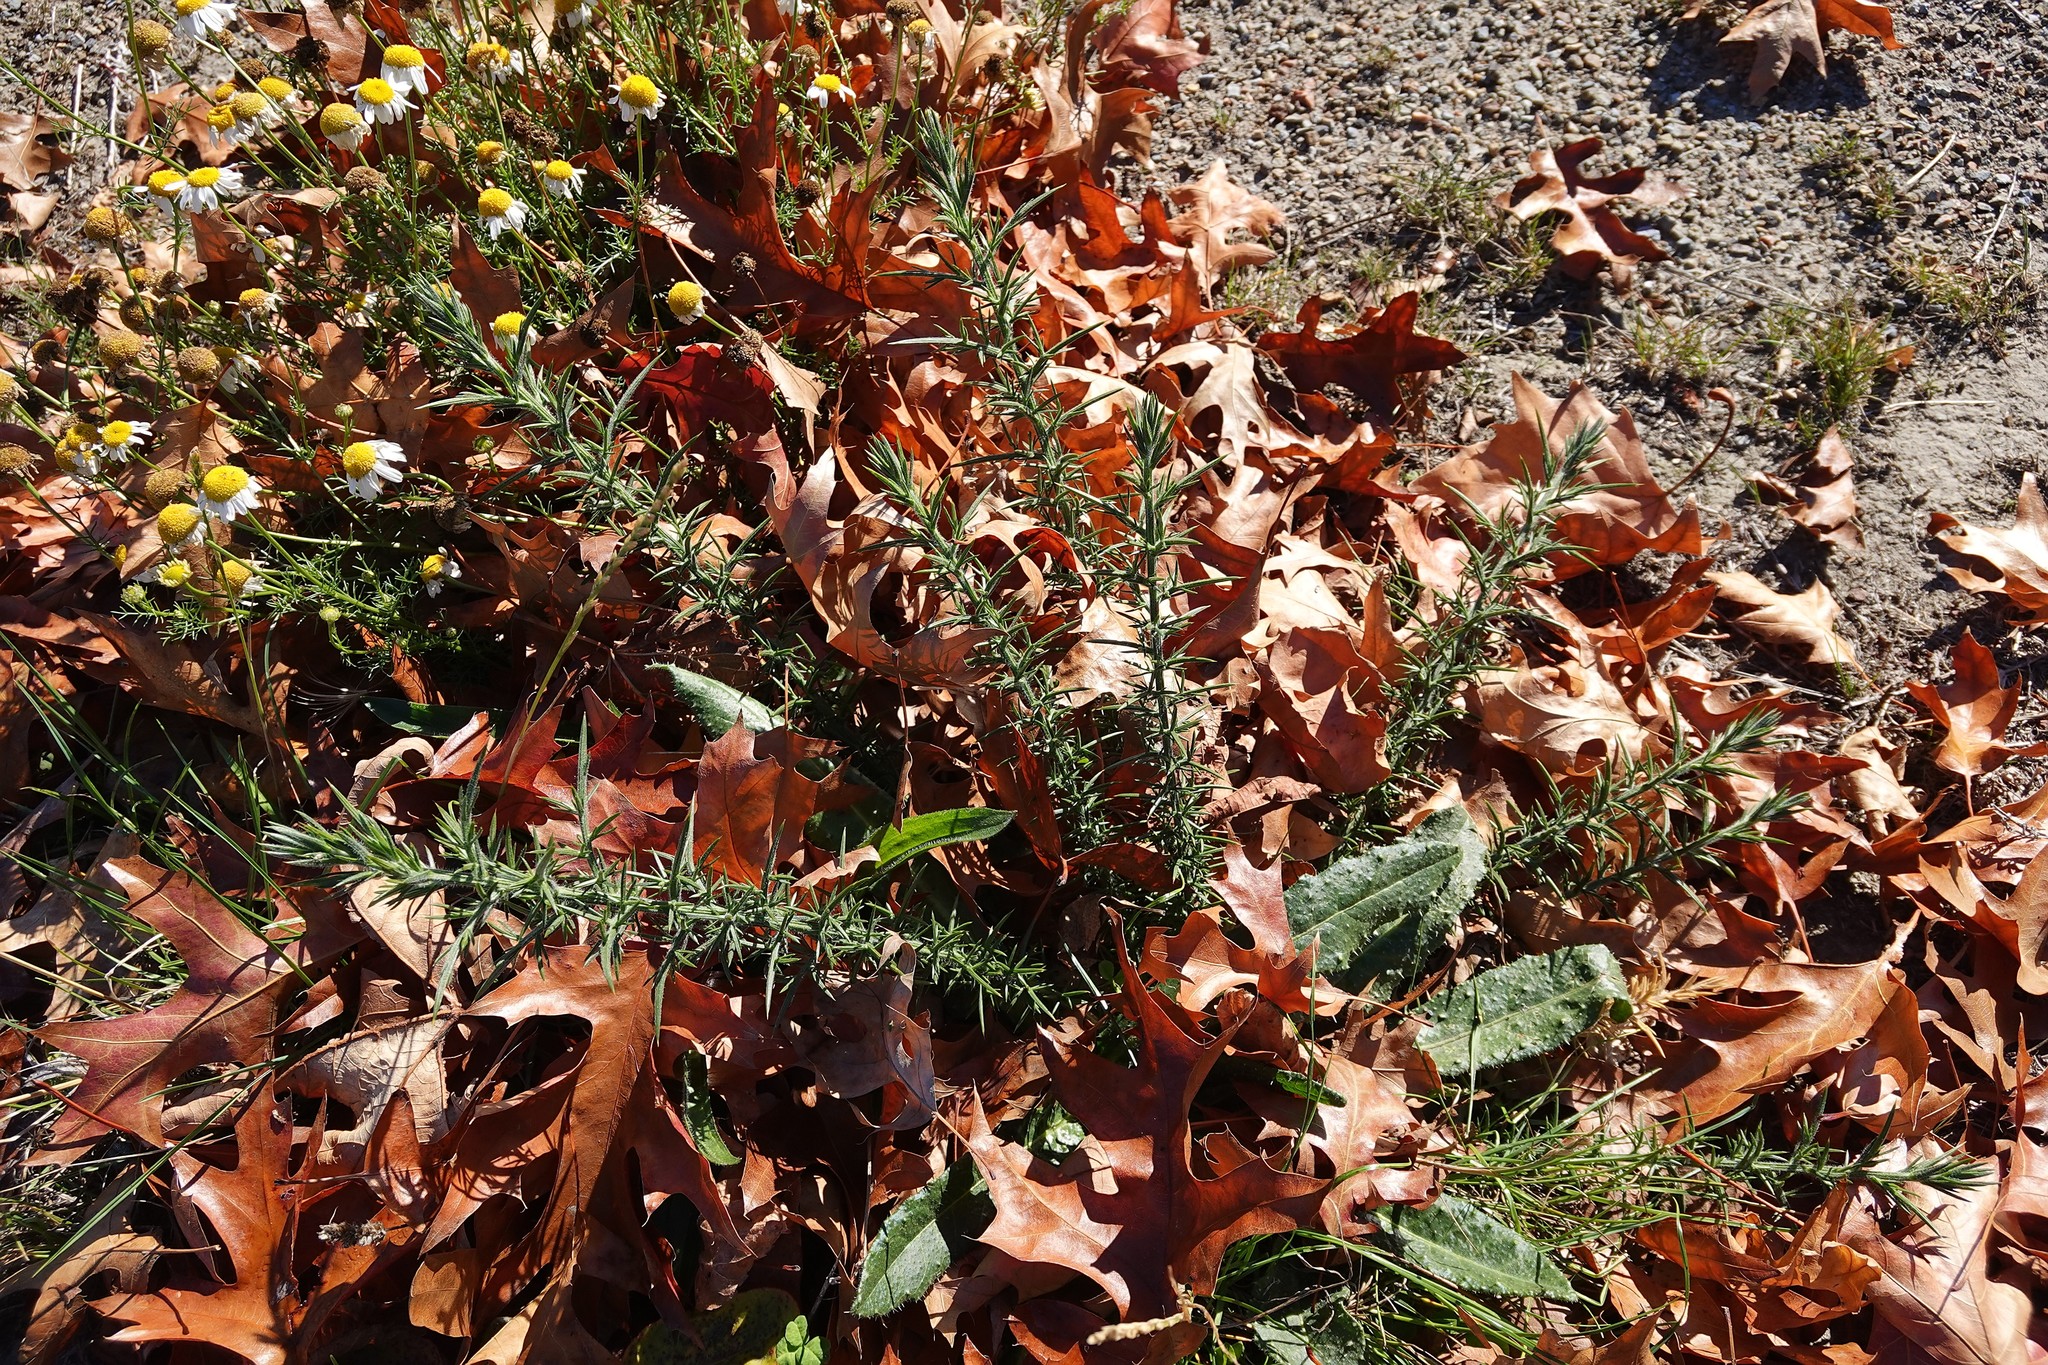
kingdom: Plantae
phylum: Tracheophyta
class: Magnoliopsida
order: Fabales
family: Fabaceae
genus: Ulex
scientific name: Ulex europaeus
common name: Common gorse
